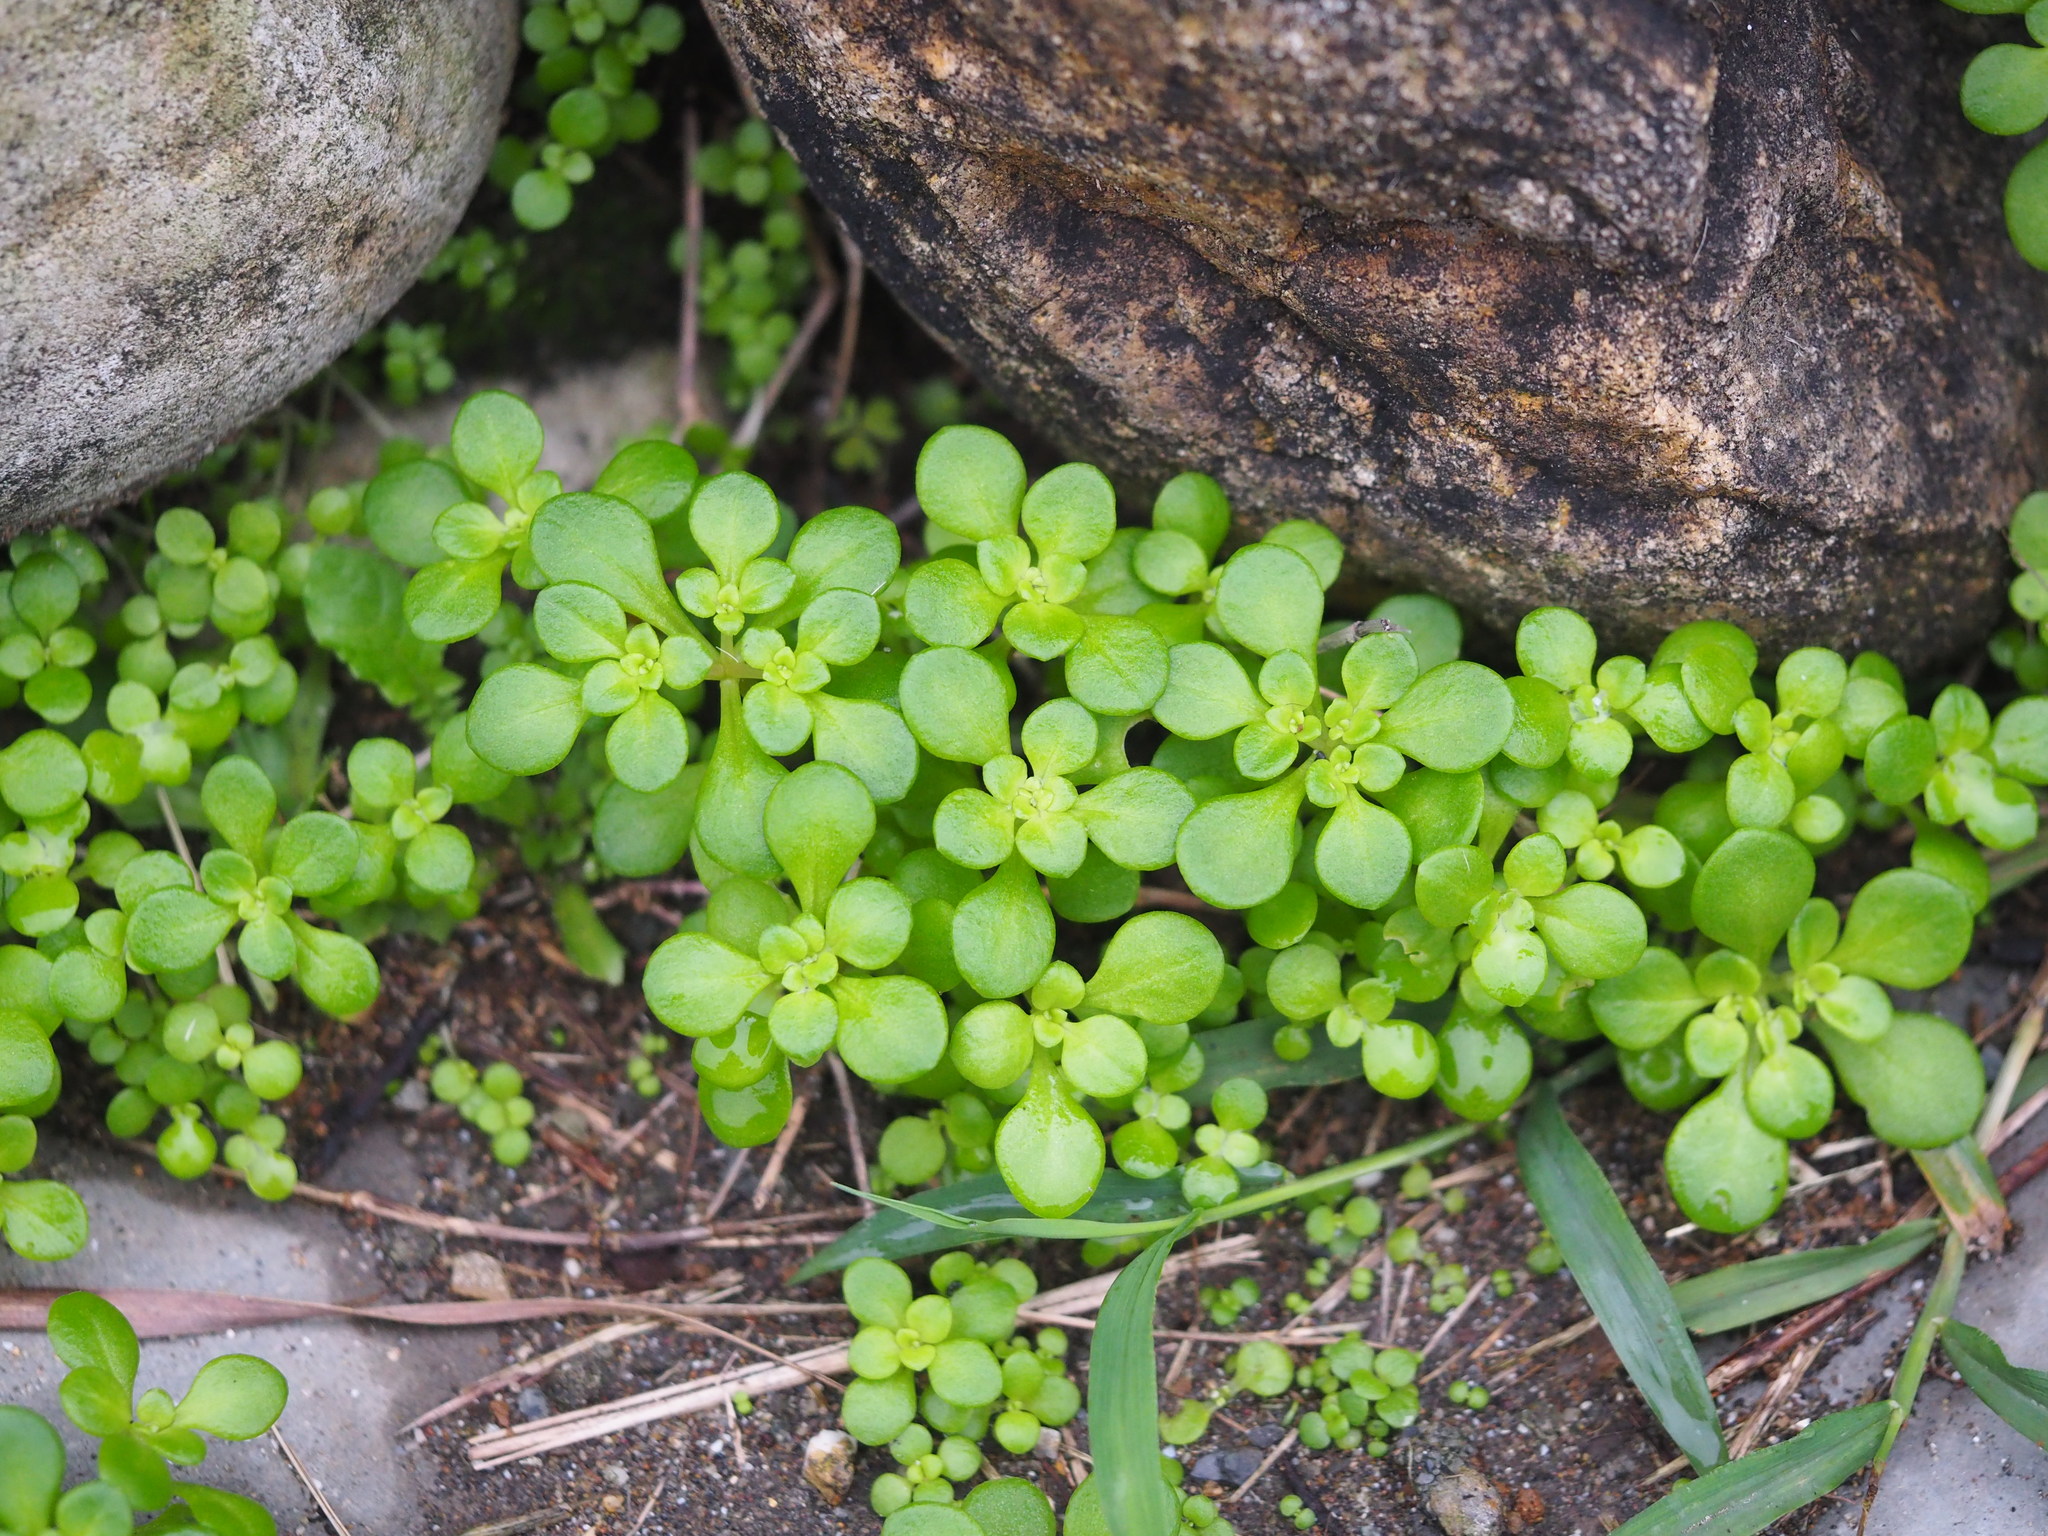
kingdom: Plantae
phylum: Tracheophyta
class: Magnoliopsida
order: Saxifragales
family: Crassulaceae
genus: Sedum
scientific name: Sedum formosanum
